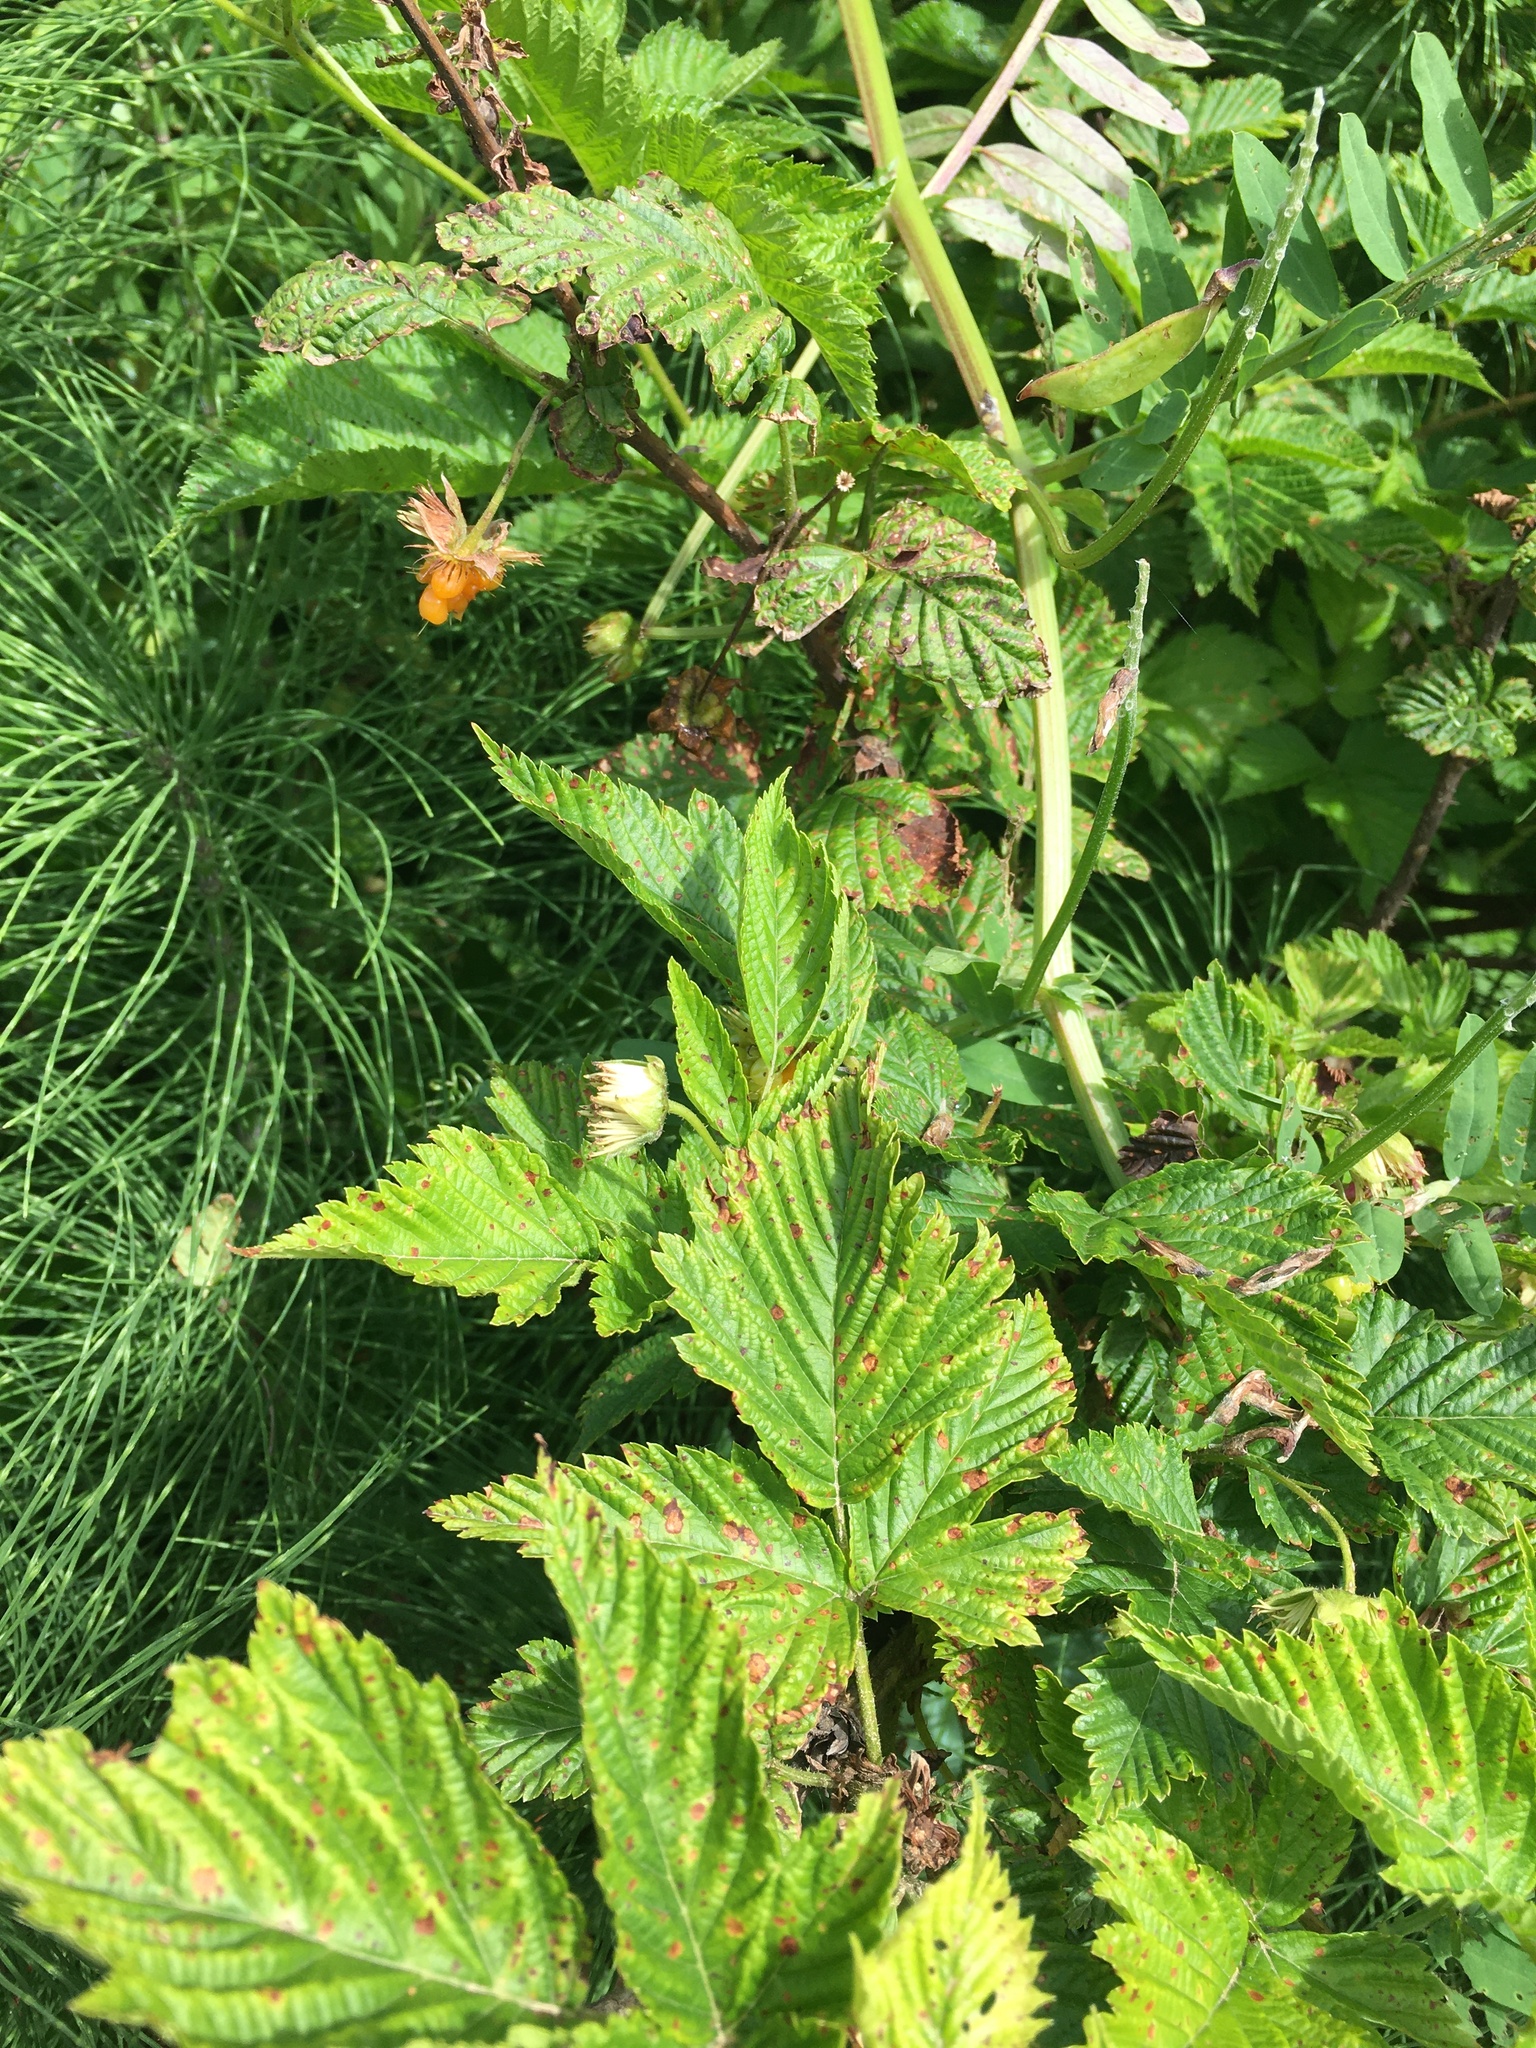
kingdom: Plantae
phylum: Tracheophyta
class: Magnoliopsida
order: Rosales
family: Rosaceae
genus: Rubus
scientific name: Rubus spectabilis
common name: Salmonberry
